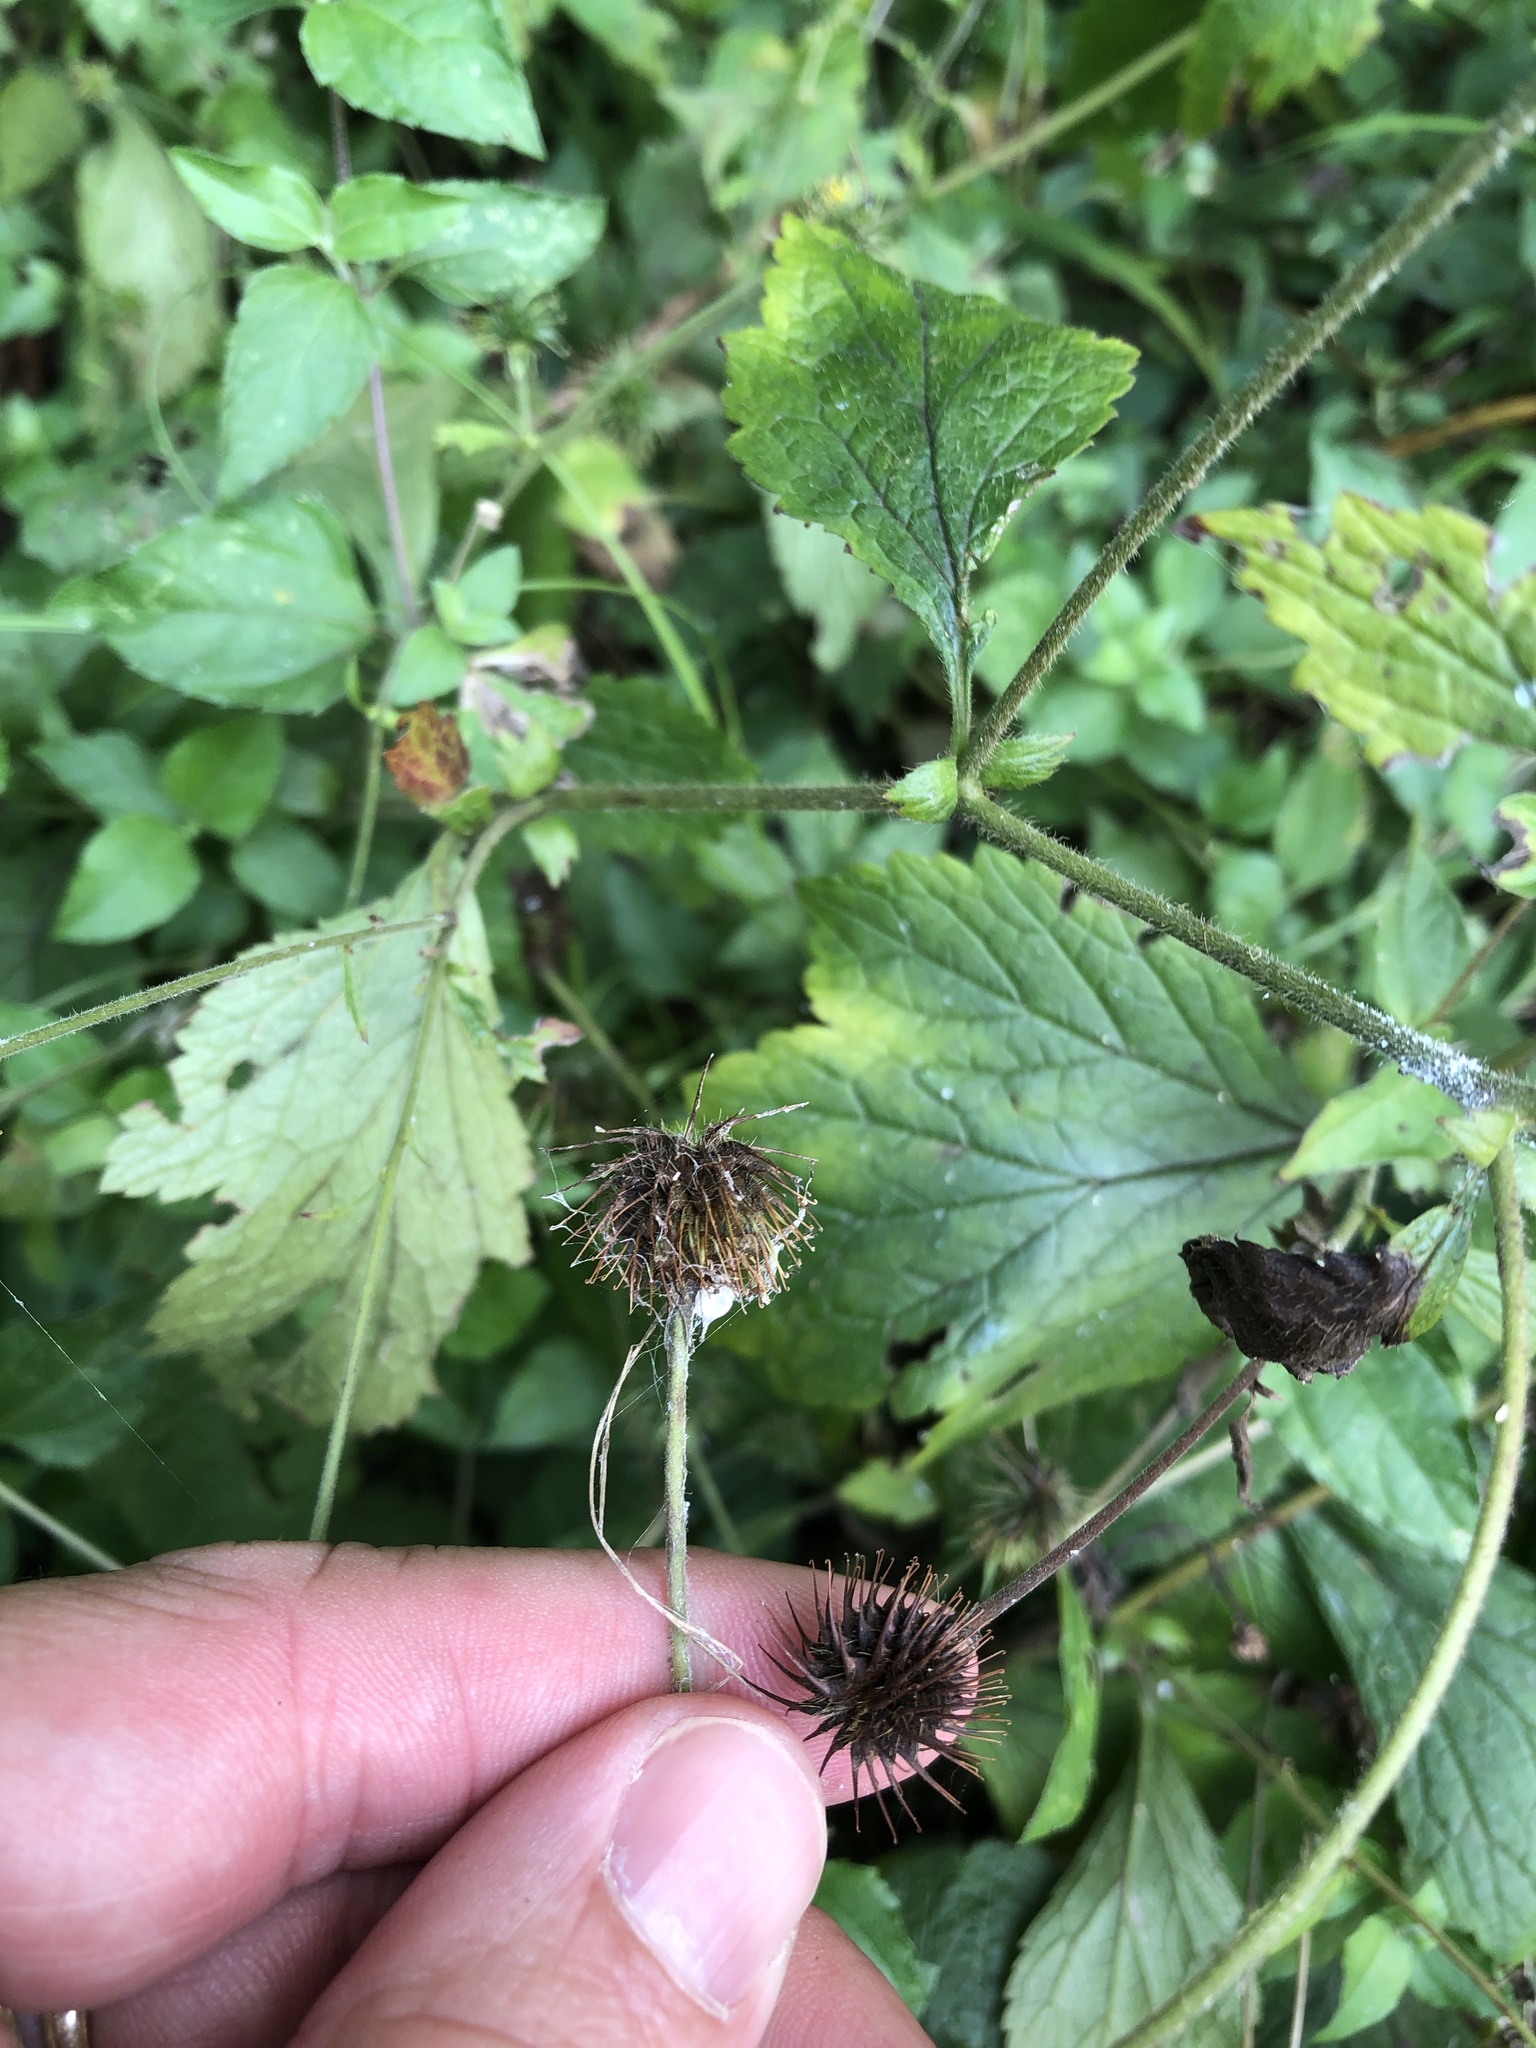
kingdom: Plantae
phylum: Tracheophyta
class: Magnoliopsida
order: Rosales
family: Rosaceae
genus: Geum
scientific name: Geum canadense
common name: White avens
